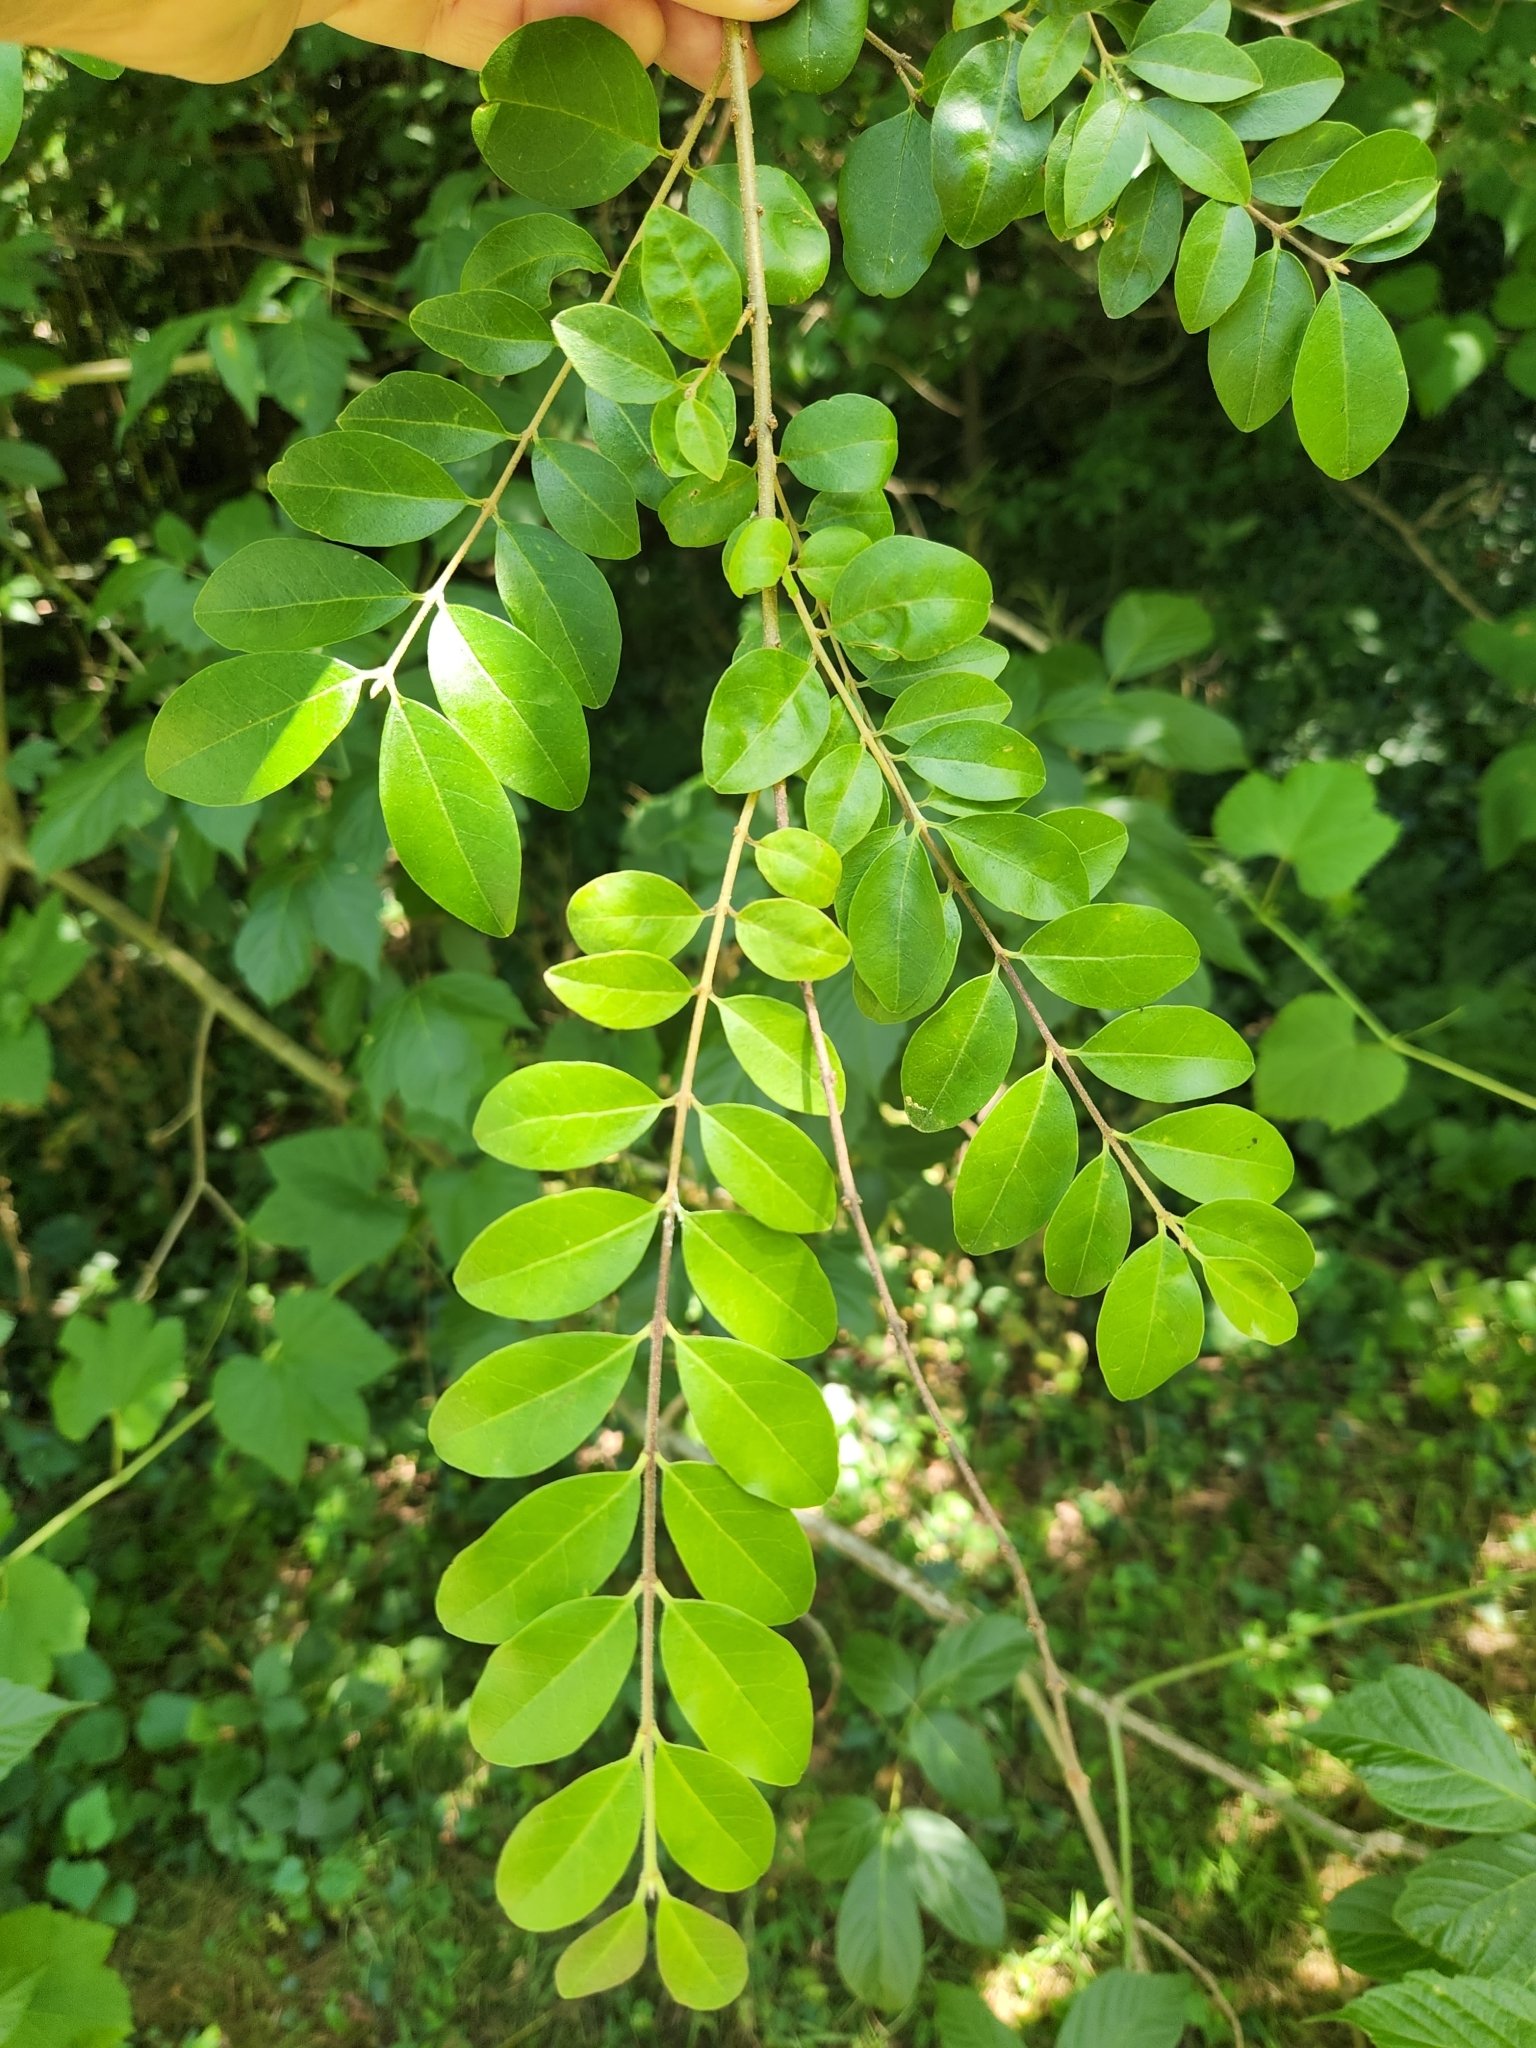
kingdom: Plantae
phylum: Tracheophyta
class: Magnoliopsida
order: Lamiales
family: Oleaceae
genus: Ligustrum
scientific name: Ligustrum sinense
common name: Chinese privet
